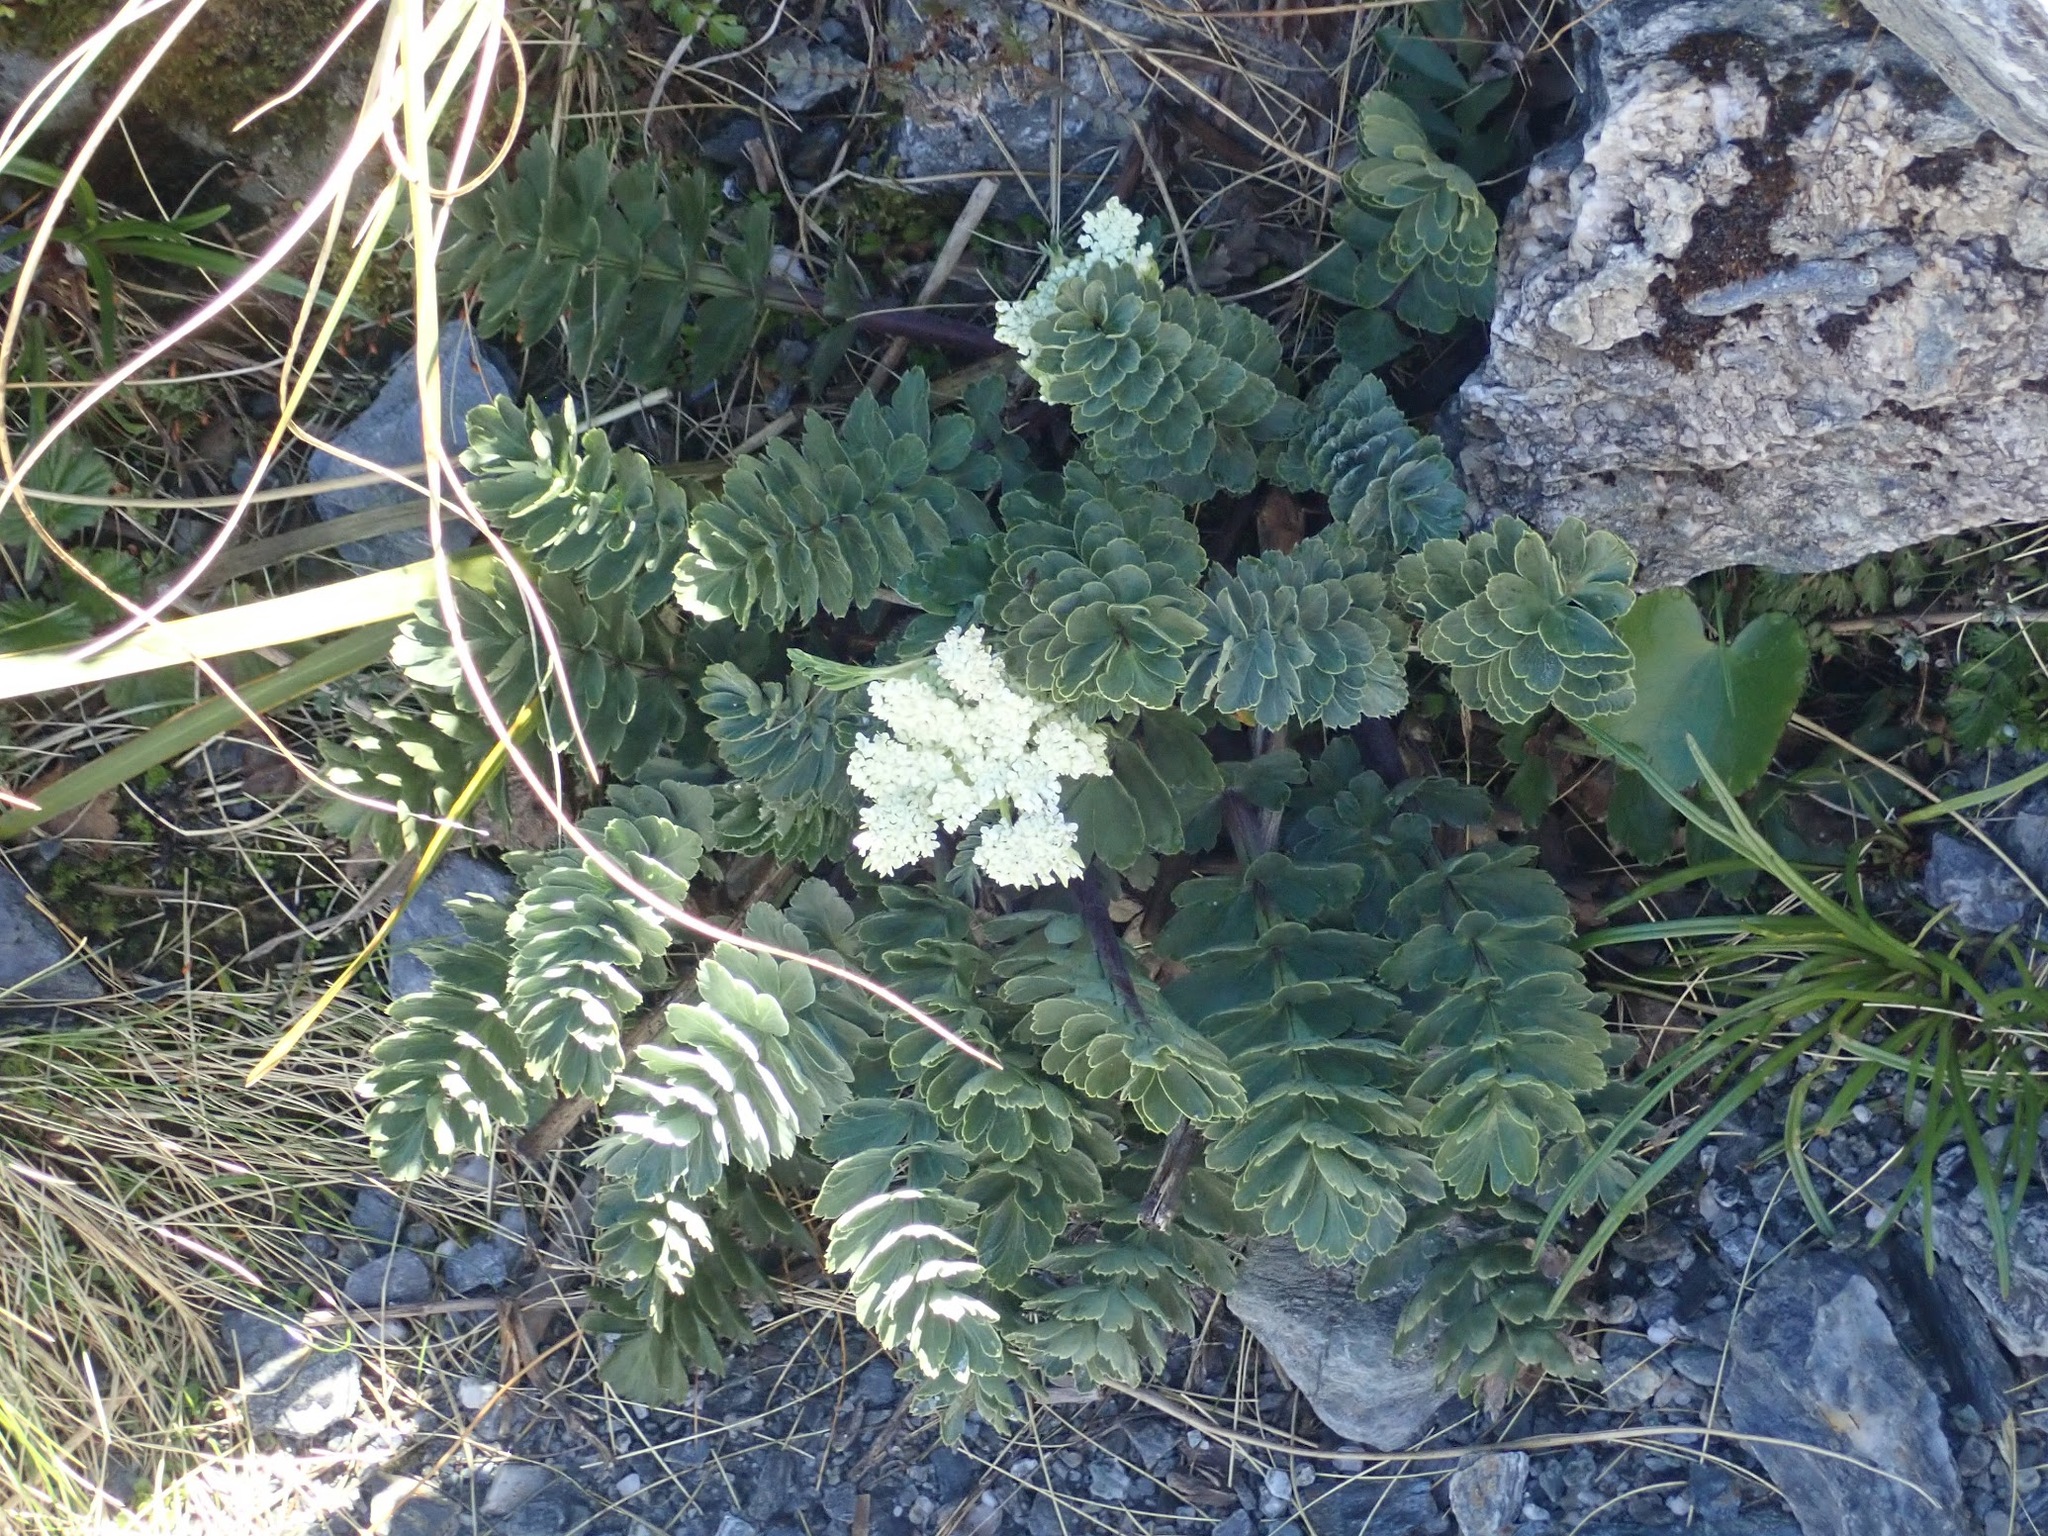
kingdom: Plantae
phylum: Tracheophyta
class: Magnoliopsida
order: Apiales
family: Apiaceae
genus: Anisotome
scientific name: Anisotome pilifera
